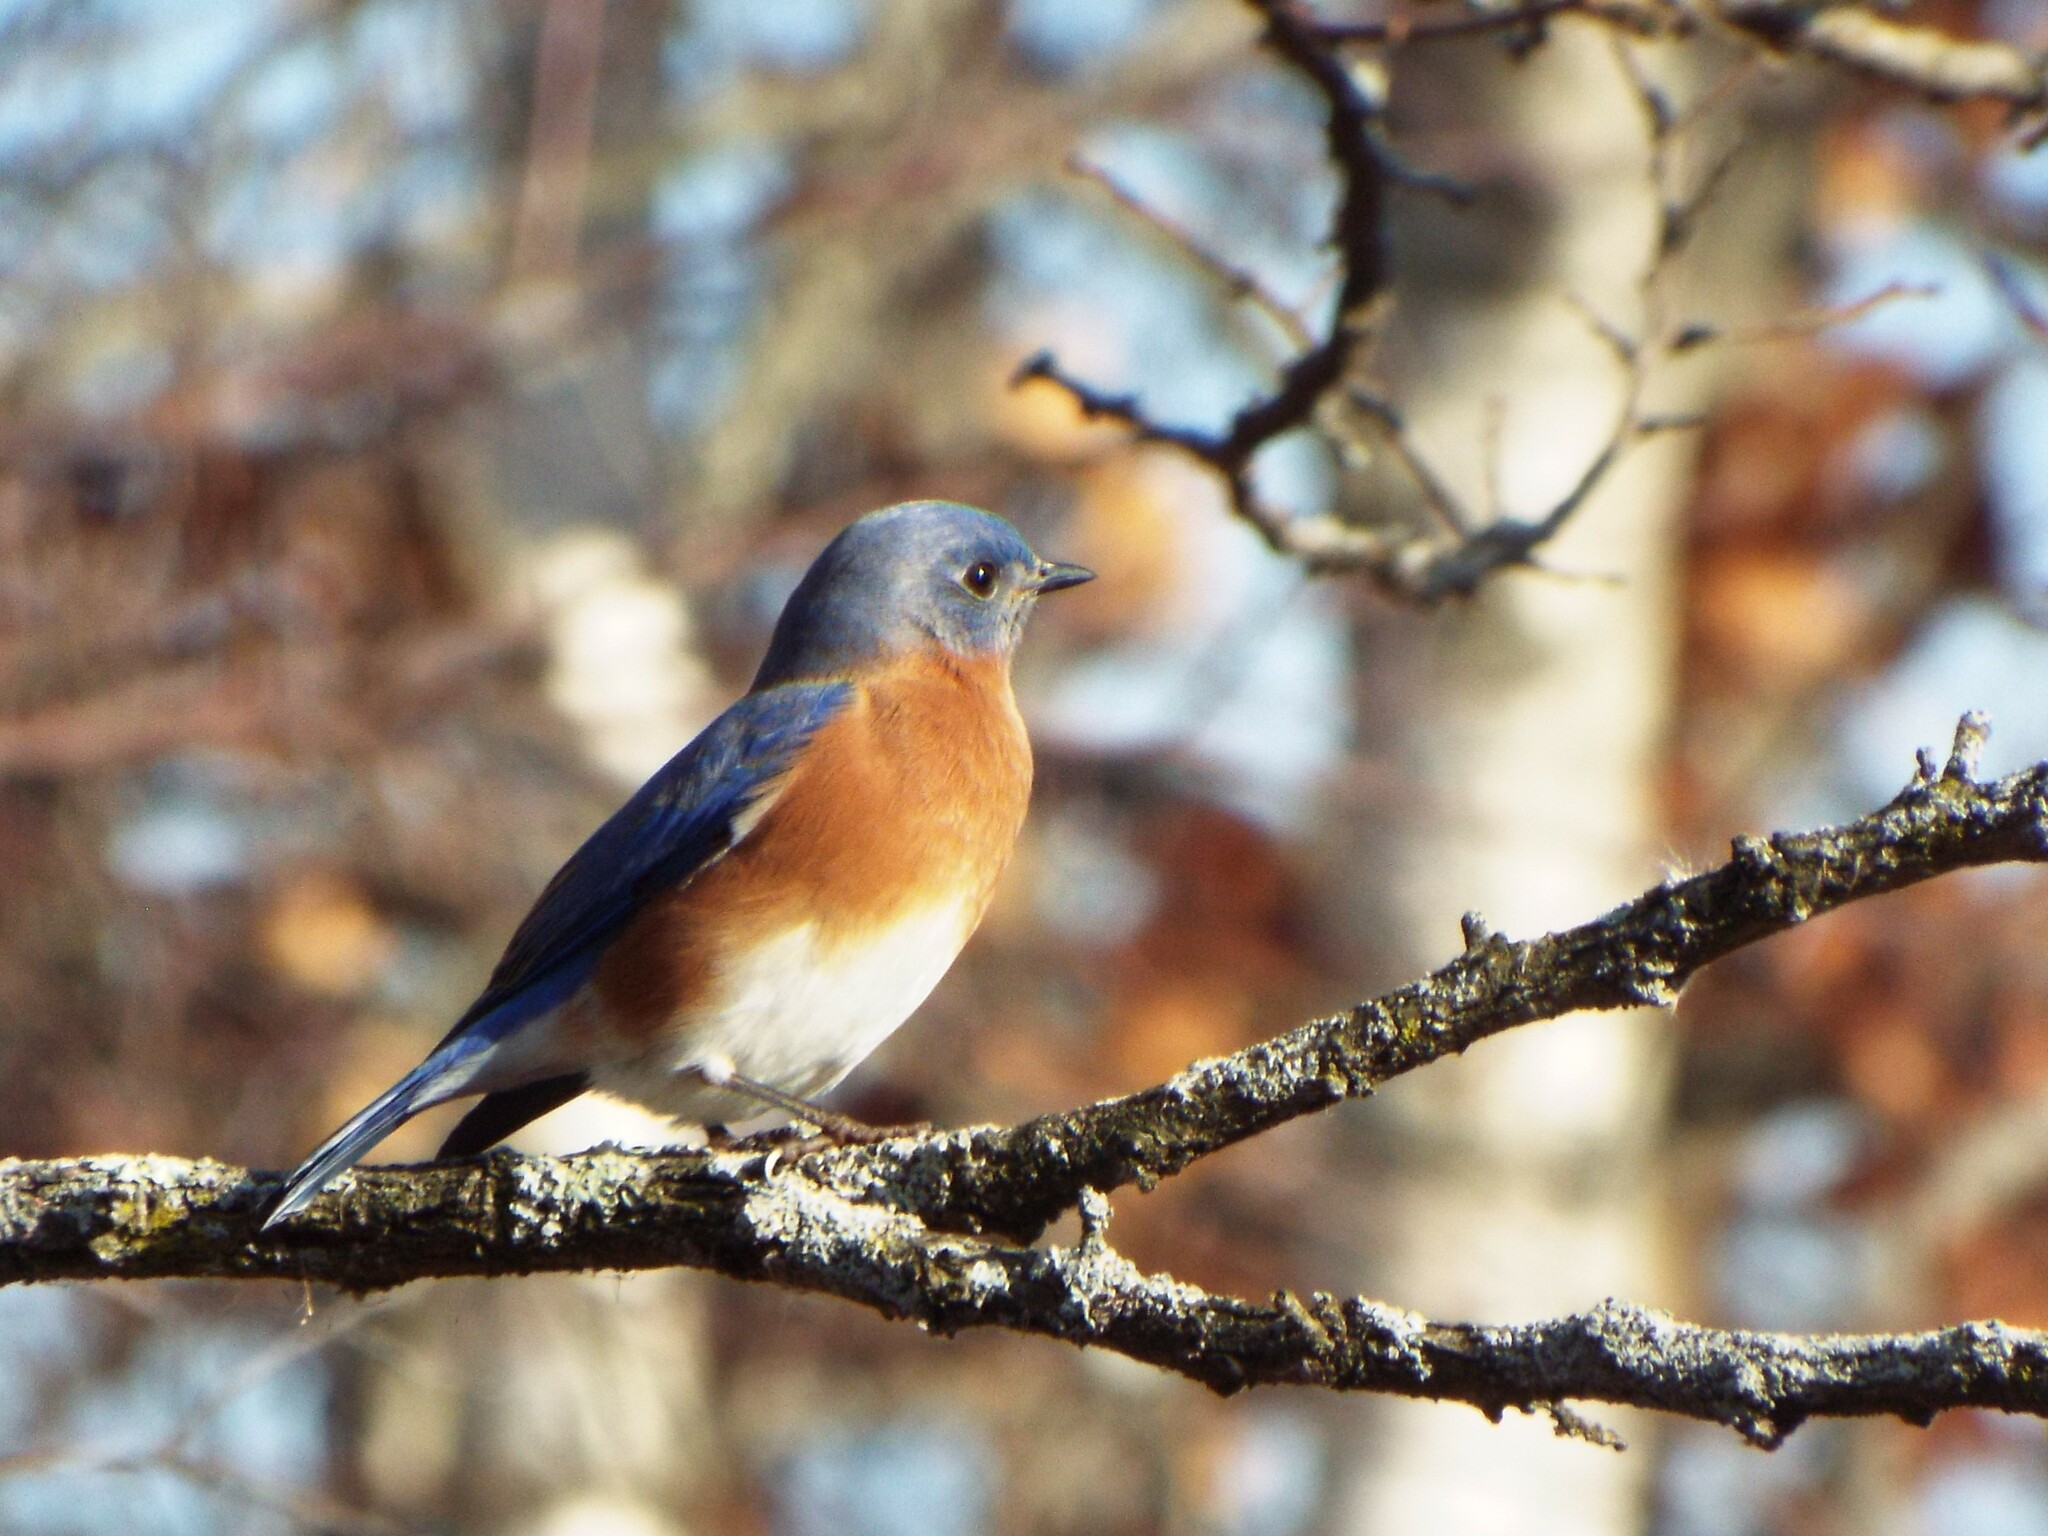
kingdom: Animalia
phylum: Chordata
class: Aves
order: Passeriformes
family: Turdidae
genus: Sialia
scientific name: Sialia sialis
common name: Eastern bluebird
